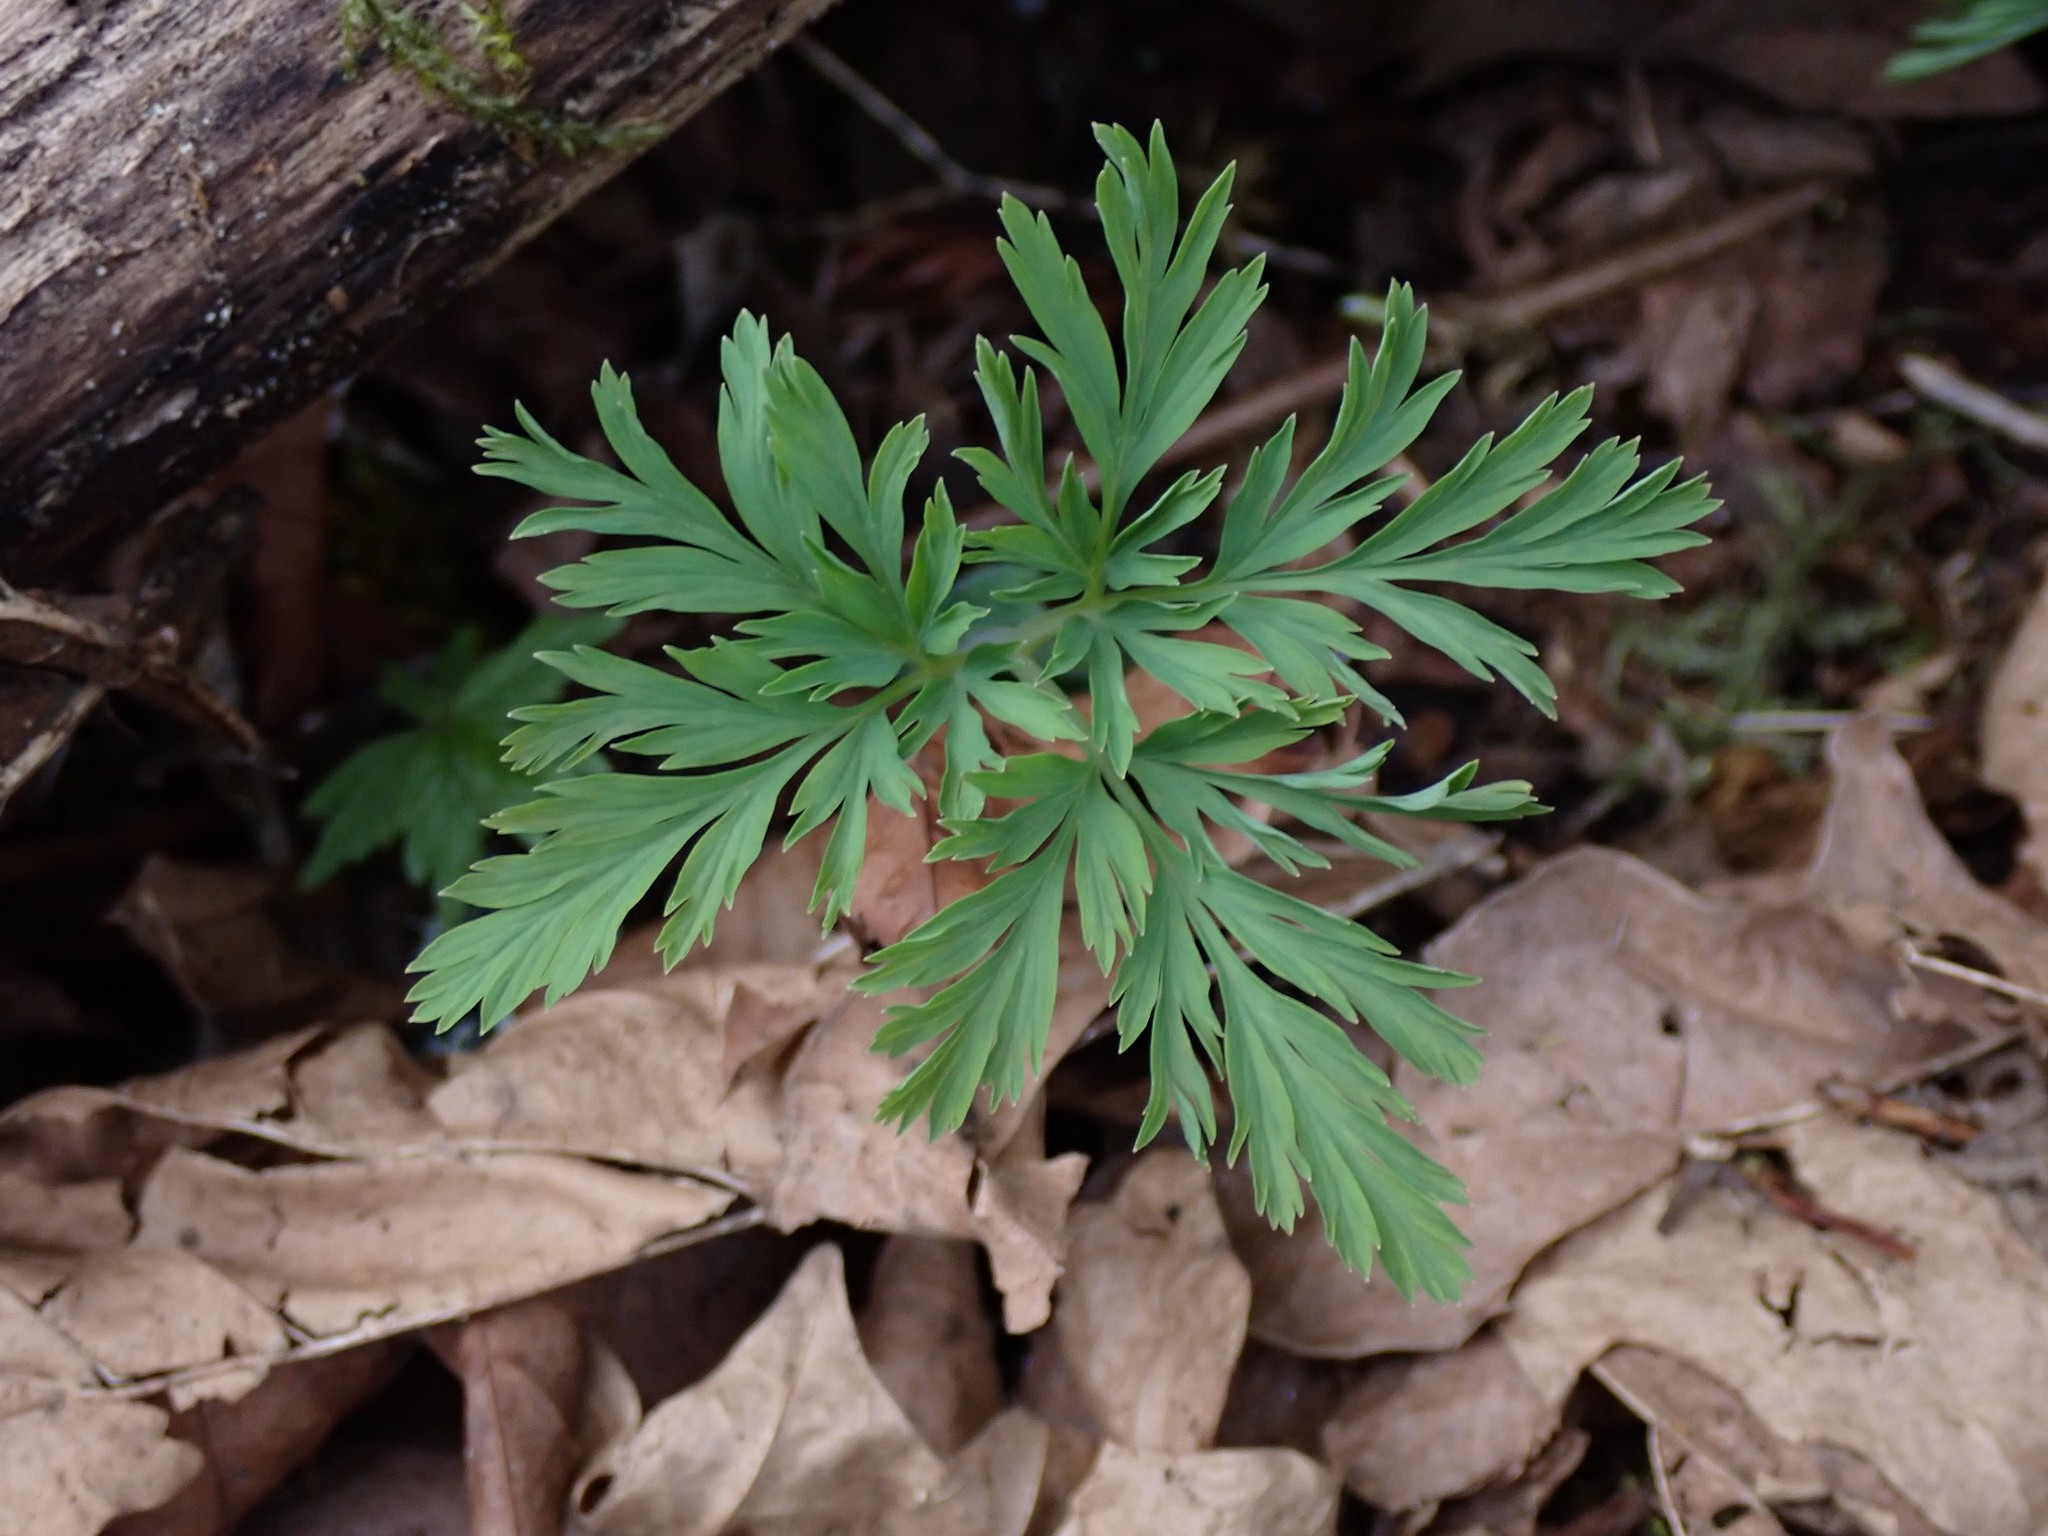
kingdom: Plantae
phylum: Tracheophyta
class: Magnoliopsida
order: Ranunculales
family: Papaveraceae
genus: Dicentra
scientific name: Dicentra formosa
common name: Bleeding-heart
